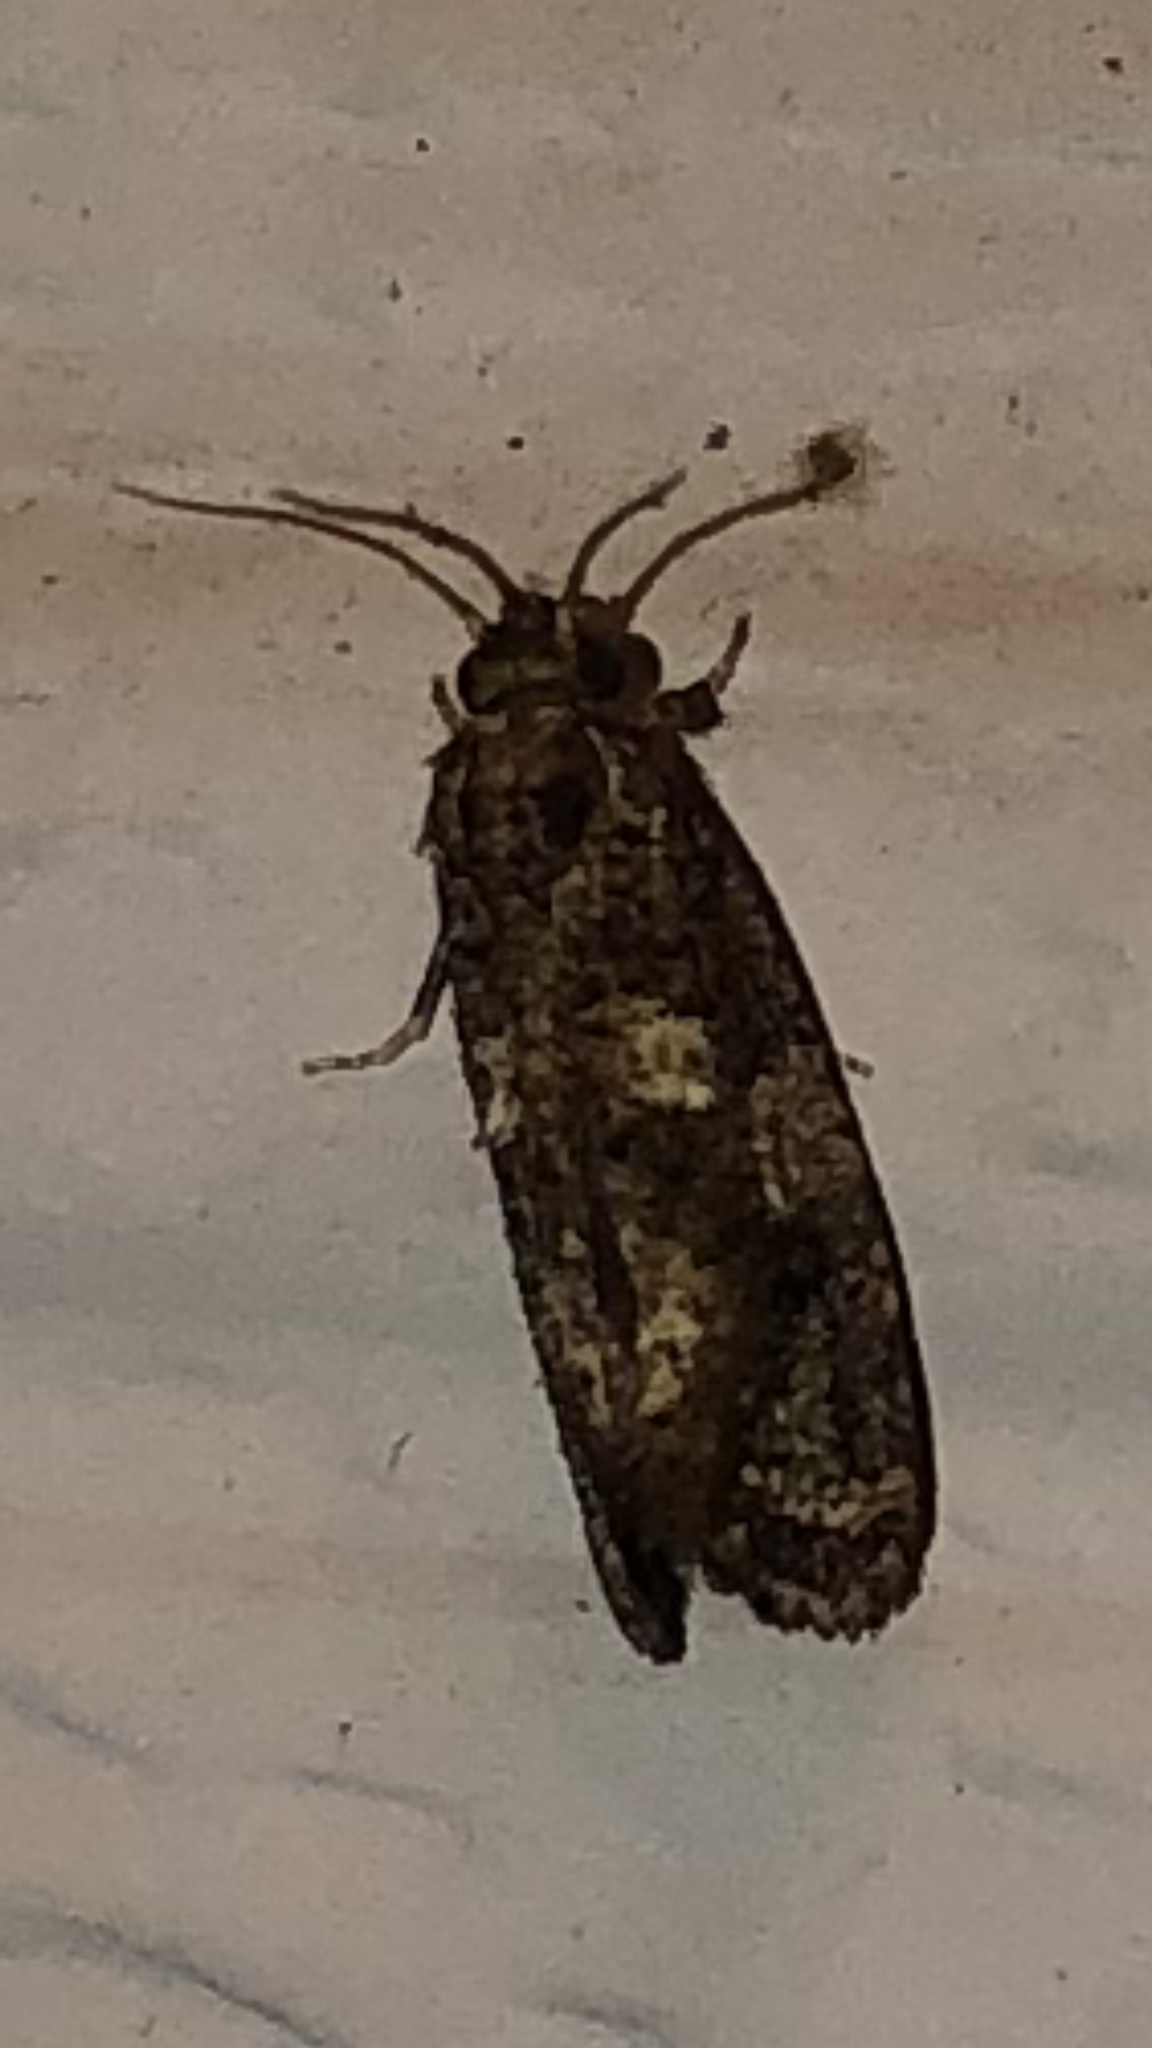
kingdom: Animalia
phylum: Arthropoda
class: Insecta
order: Lepidoptera
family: Tineidae
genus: Acrolophus
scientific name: Acrolophus cressoni
